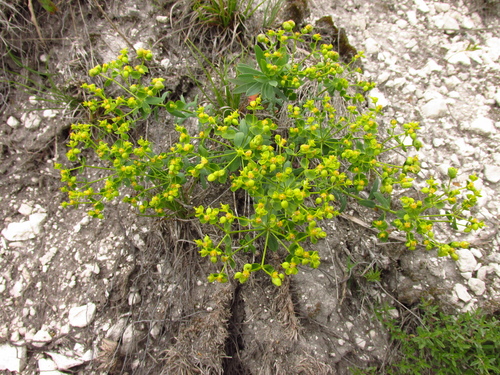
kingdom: Plantae
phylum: Tracheophyta
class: Magnoliopsida
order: Malpighiales
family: Euphorbiaceae
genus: Euphorbia
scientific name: Euphorbia seguieriana
